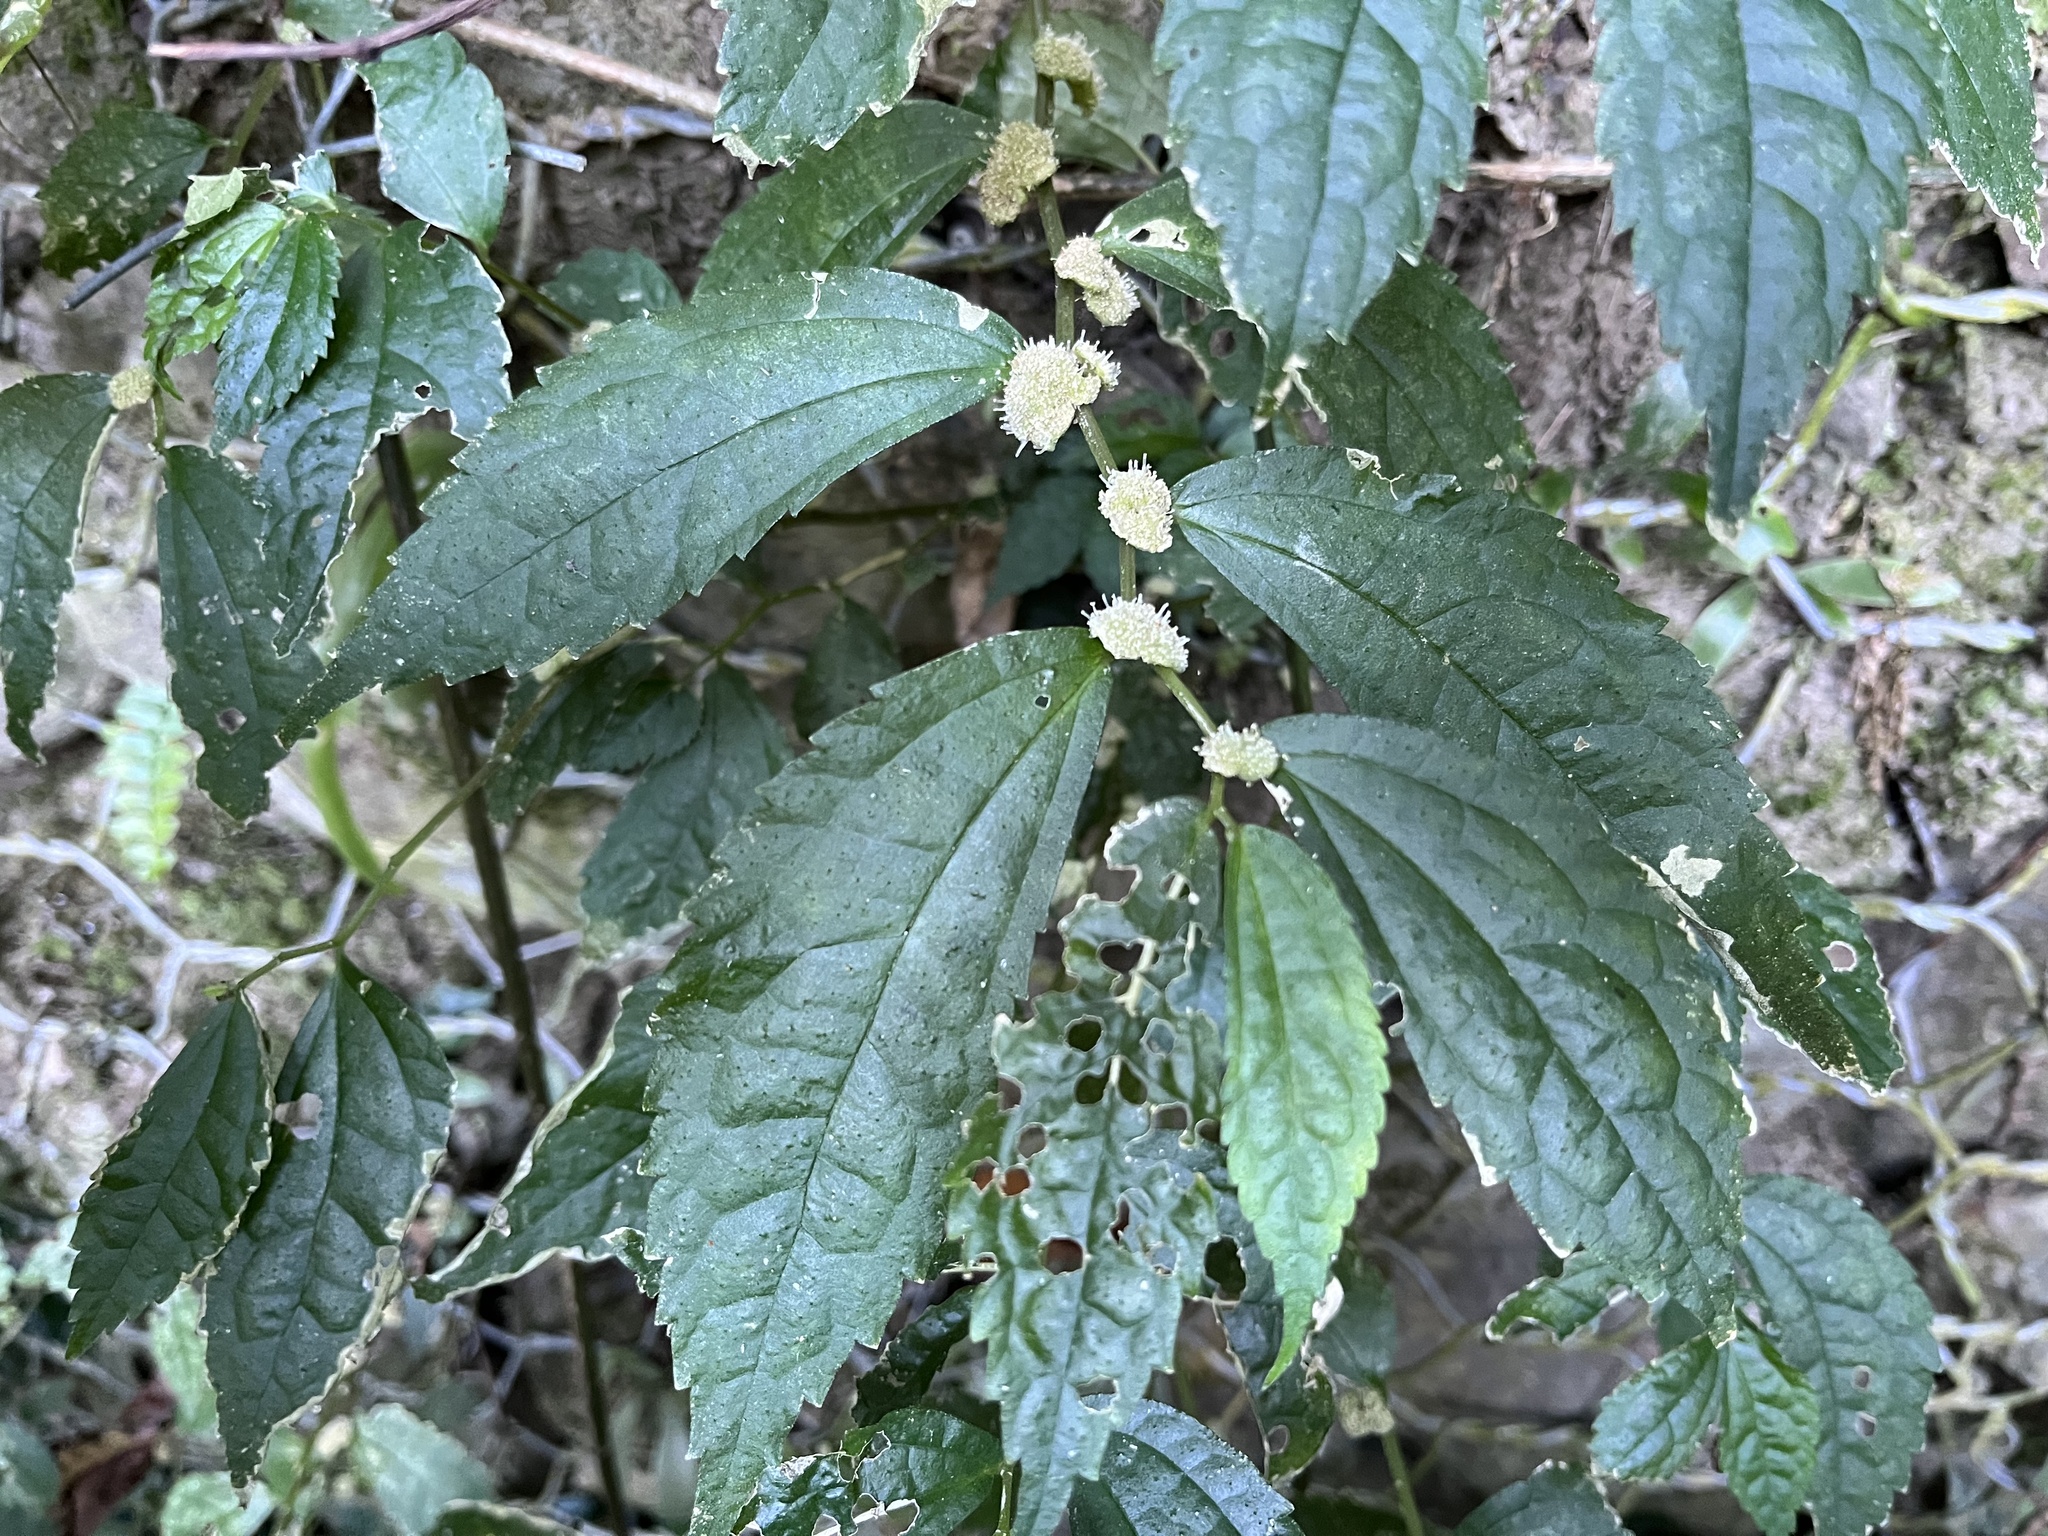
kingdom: Plantae
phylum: Tracheophyta
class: Magnoliopsida
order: Rosales
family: Urticaceae
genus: Elatostema
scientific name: Elatostema cyrtandrifolium
